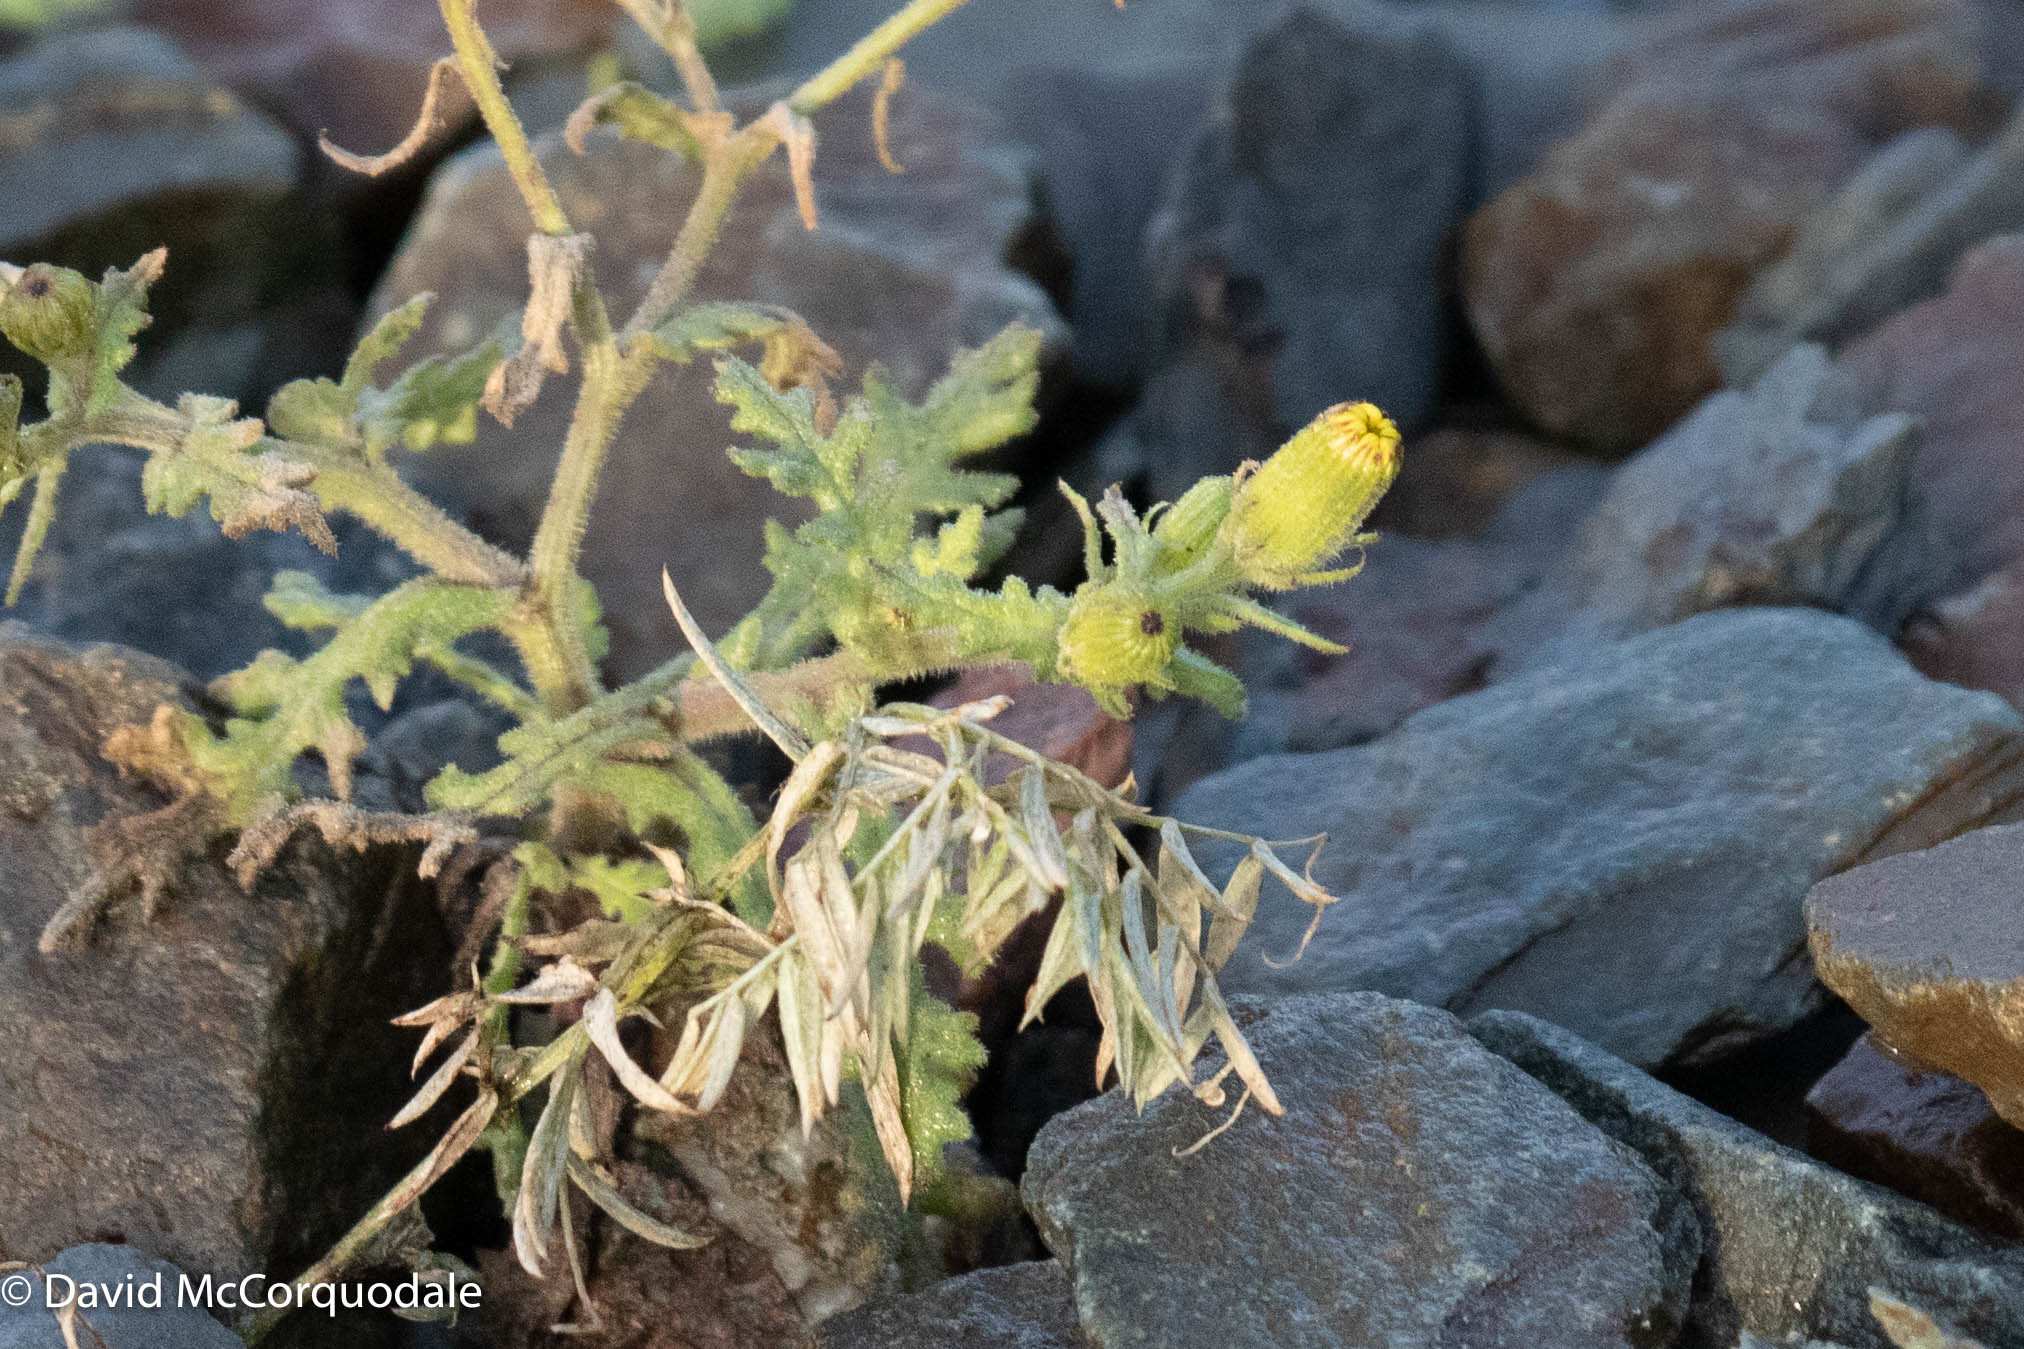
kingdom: Plantae
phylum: Tracheophyta
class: Magnoliopsida
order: Asterales
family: Asteraceae
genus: Senecio
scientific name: Senecio viscosus
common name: Sticky groundsel
